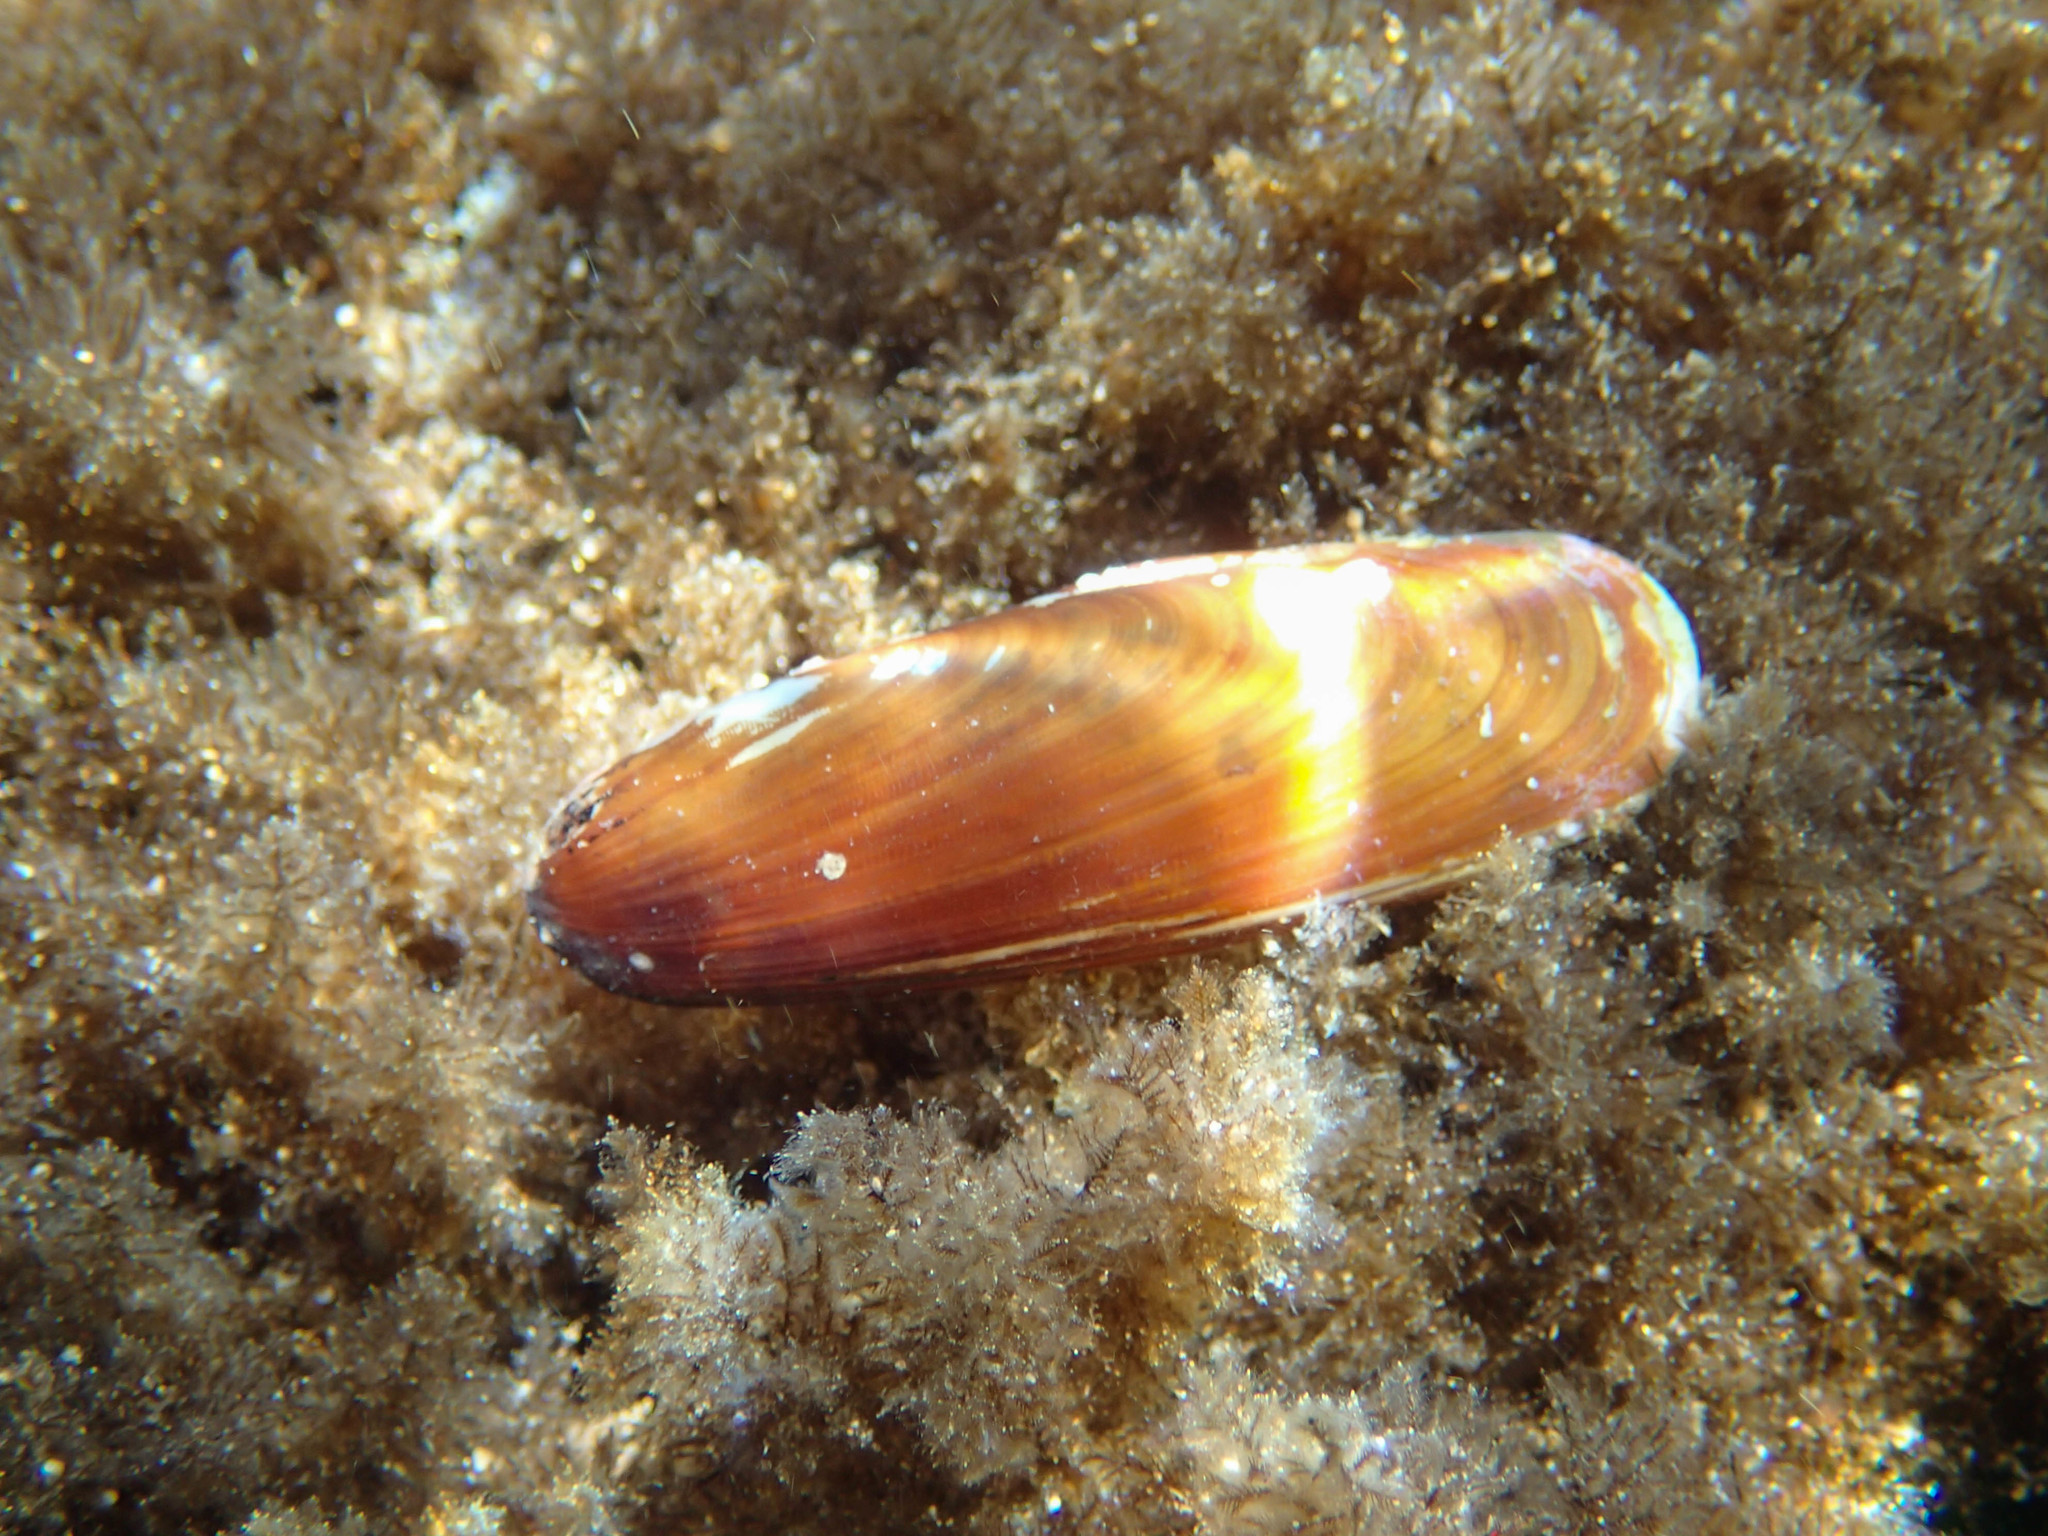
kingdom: Animalia
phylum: Mollusca
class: Bivalvia
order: Mytilida
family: Mytilidae
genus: Lithophaga
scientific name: Lithophaga lithophaga
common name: European date mussel
